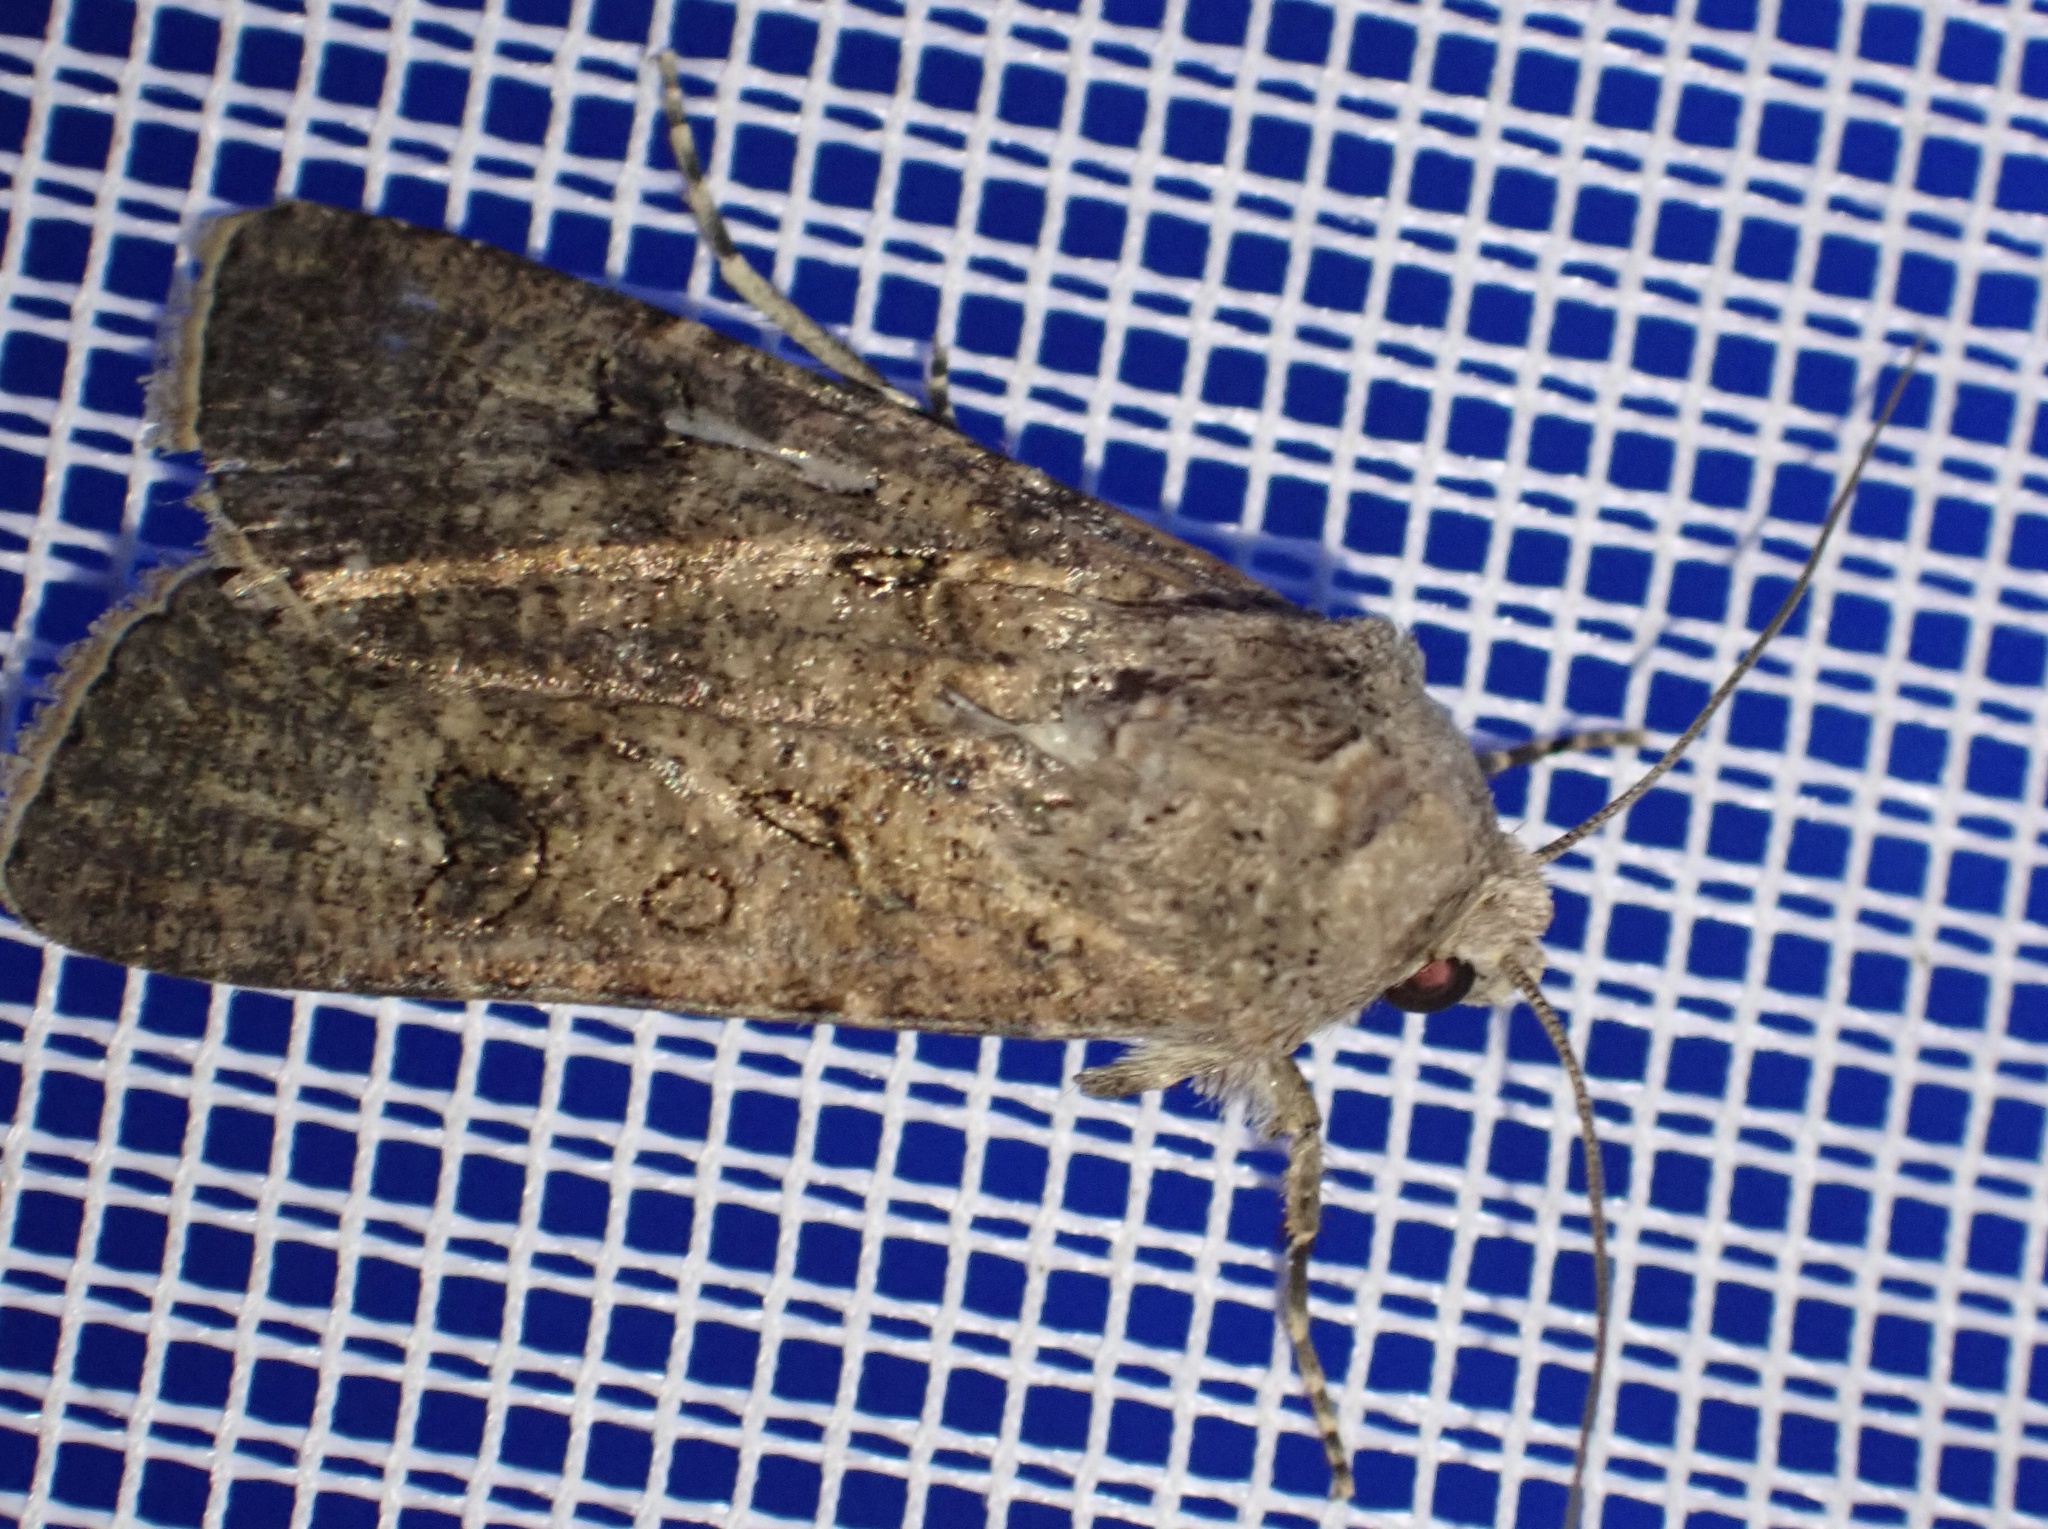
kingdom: Animalia
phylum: Arthropoda
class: Insecta
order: Lepidoptera
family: Noctuidae
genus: Agrotis
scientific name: Agrotis segetum
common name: Turnip moth
